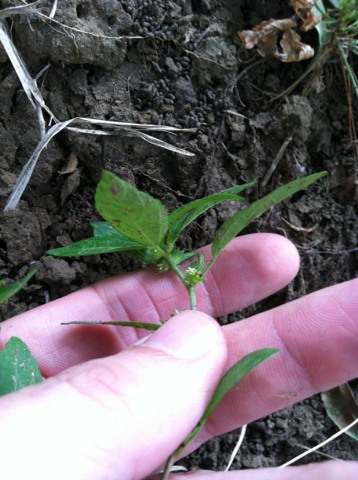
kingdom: Plantae
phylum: Tracheophyta
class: Magnoliopsida
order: Malpighiales
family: Euphorbiaceae
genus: Acalypha
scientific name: Acalypha virginica
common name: Virginia copperleaf
